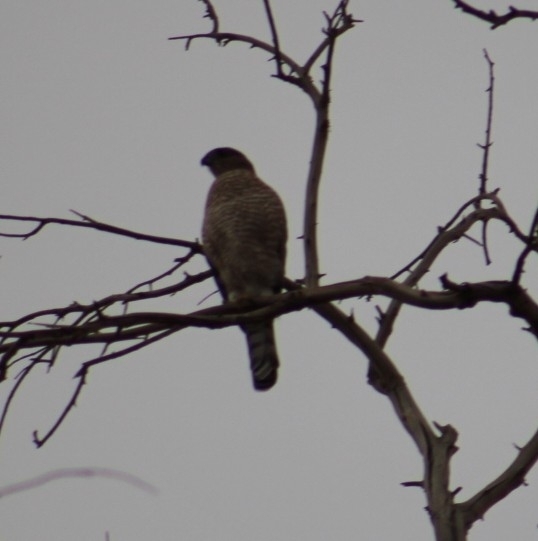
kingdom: Animalia
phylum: Chordata
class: Aves
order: Accipitriformes
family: Accipitridae
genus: Accipiter
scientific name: Accipiter cooperii
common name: Cooper's hawk
